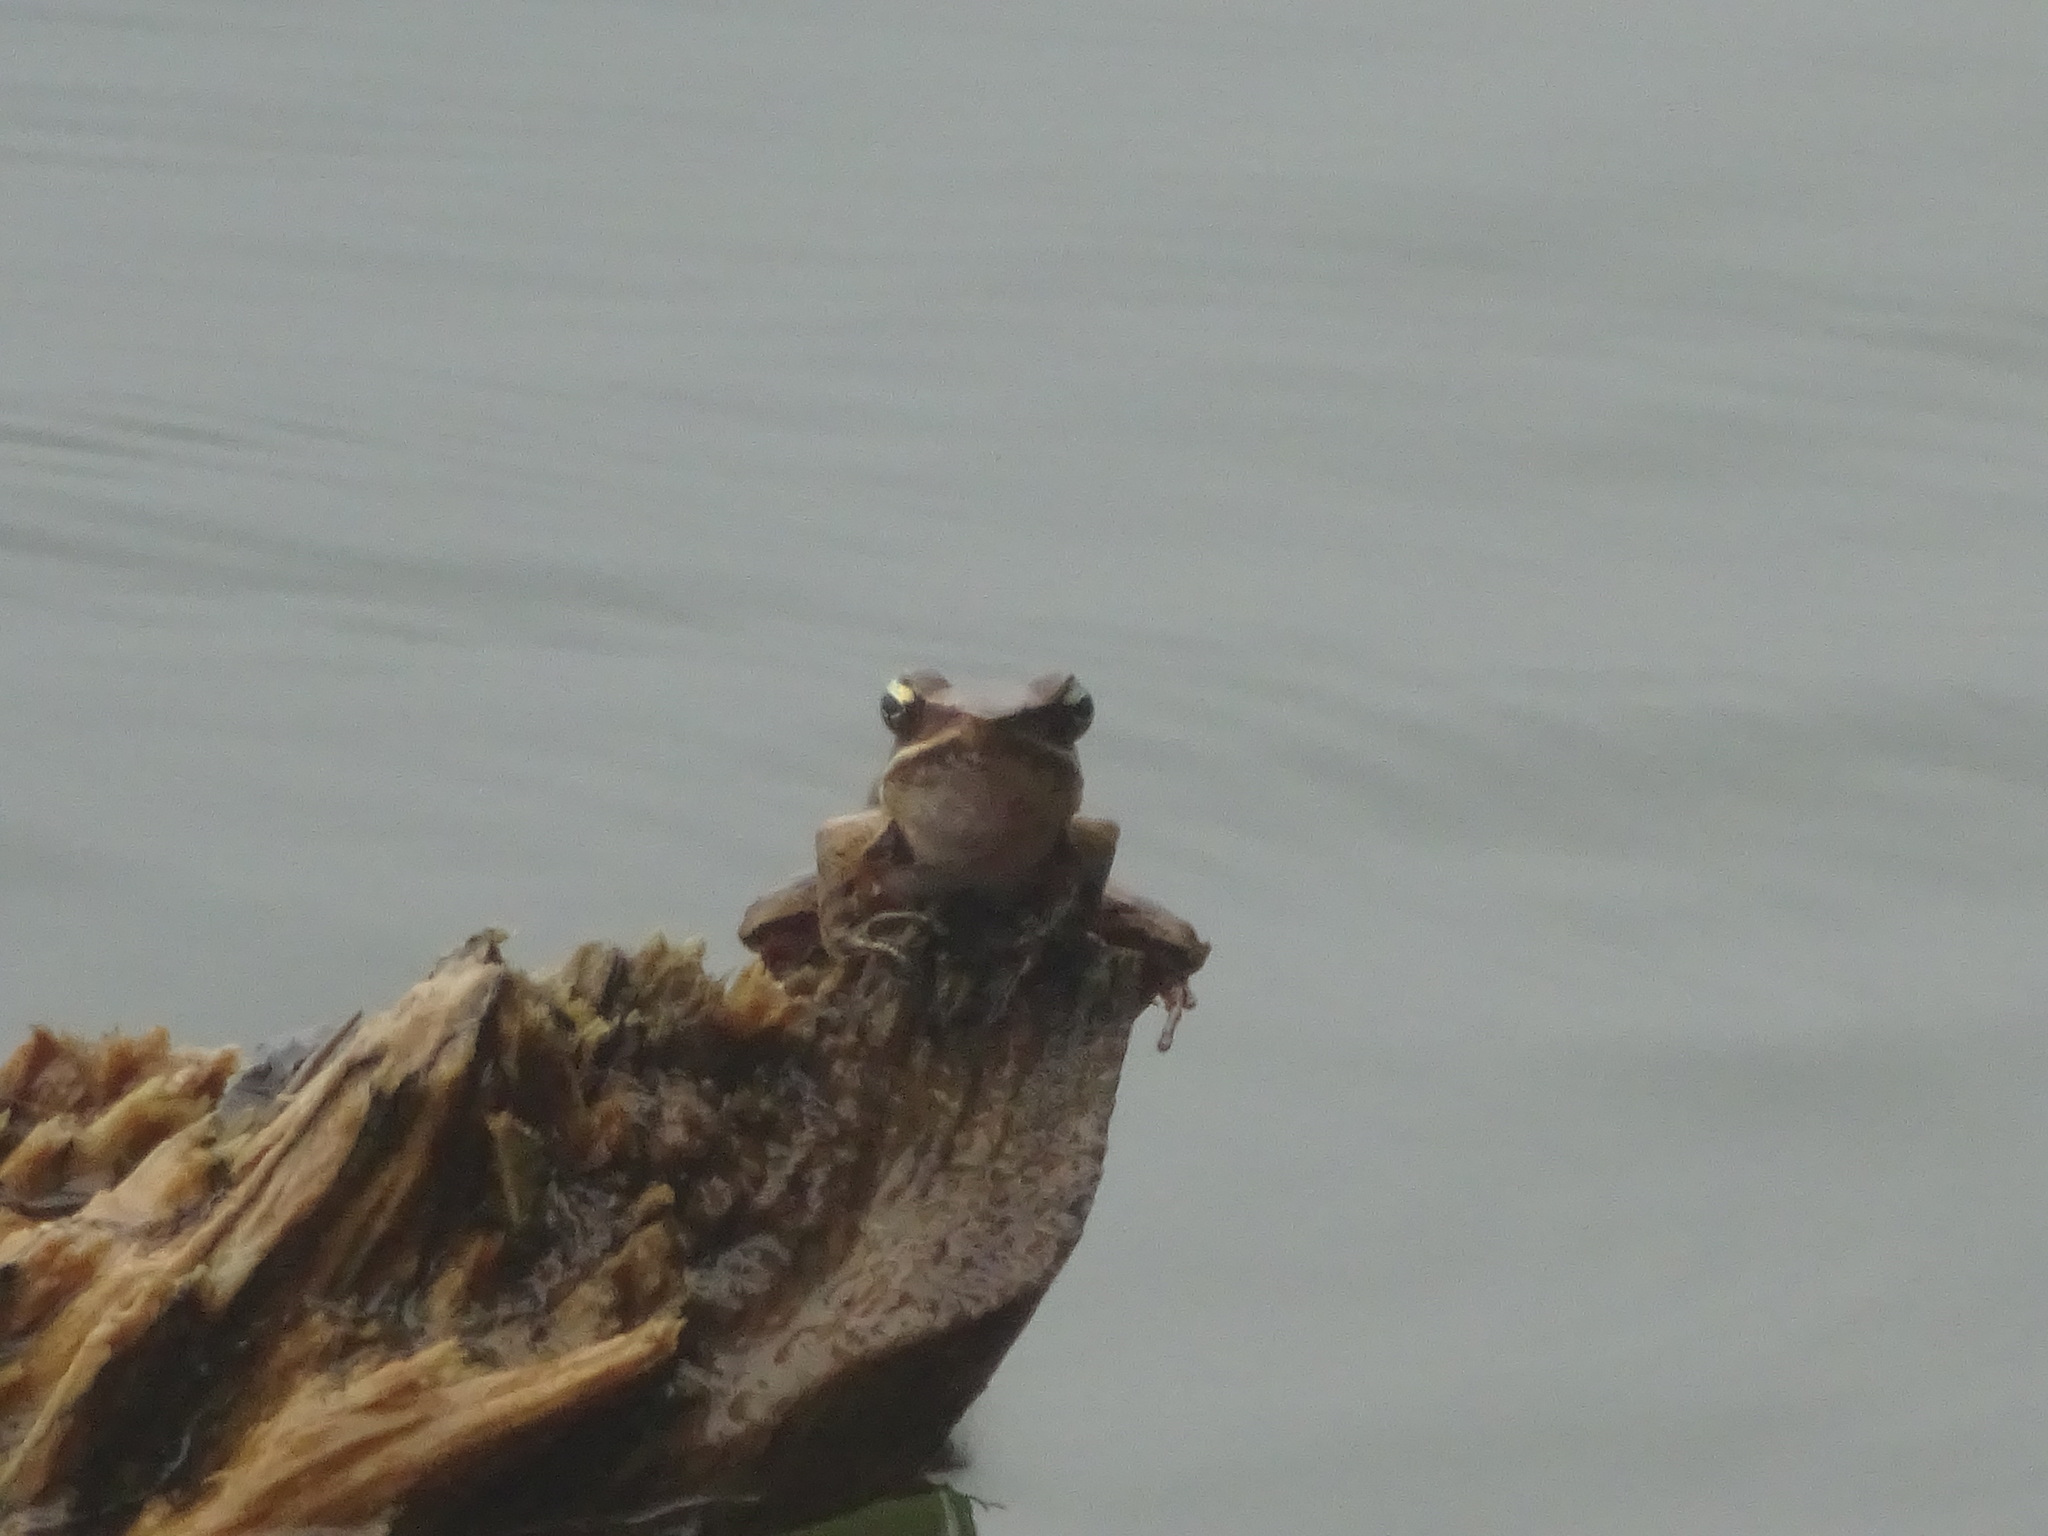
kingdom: Animalia
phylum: Chordata
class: Amphibia
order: Anura
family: Ranidae
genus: Lithobates
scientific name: Lithobates warszewitschii
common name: Warszewitsch's frog
